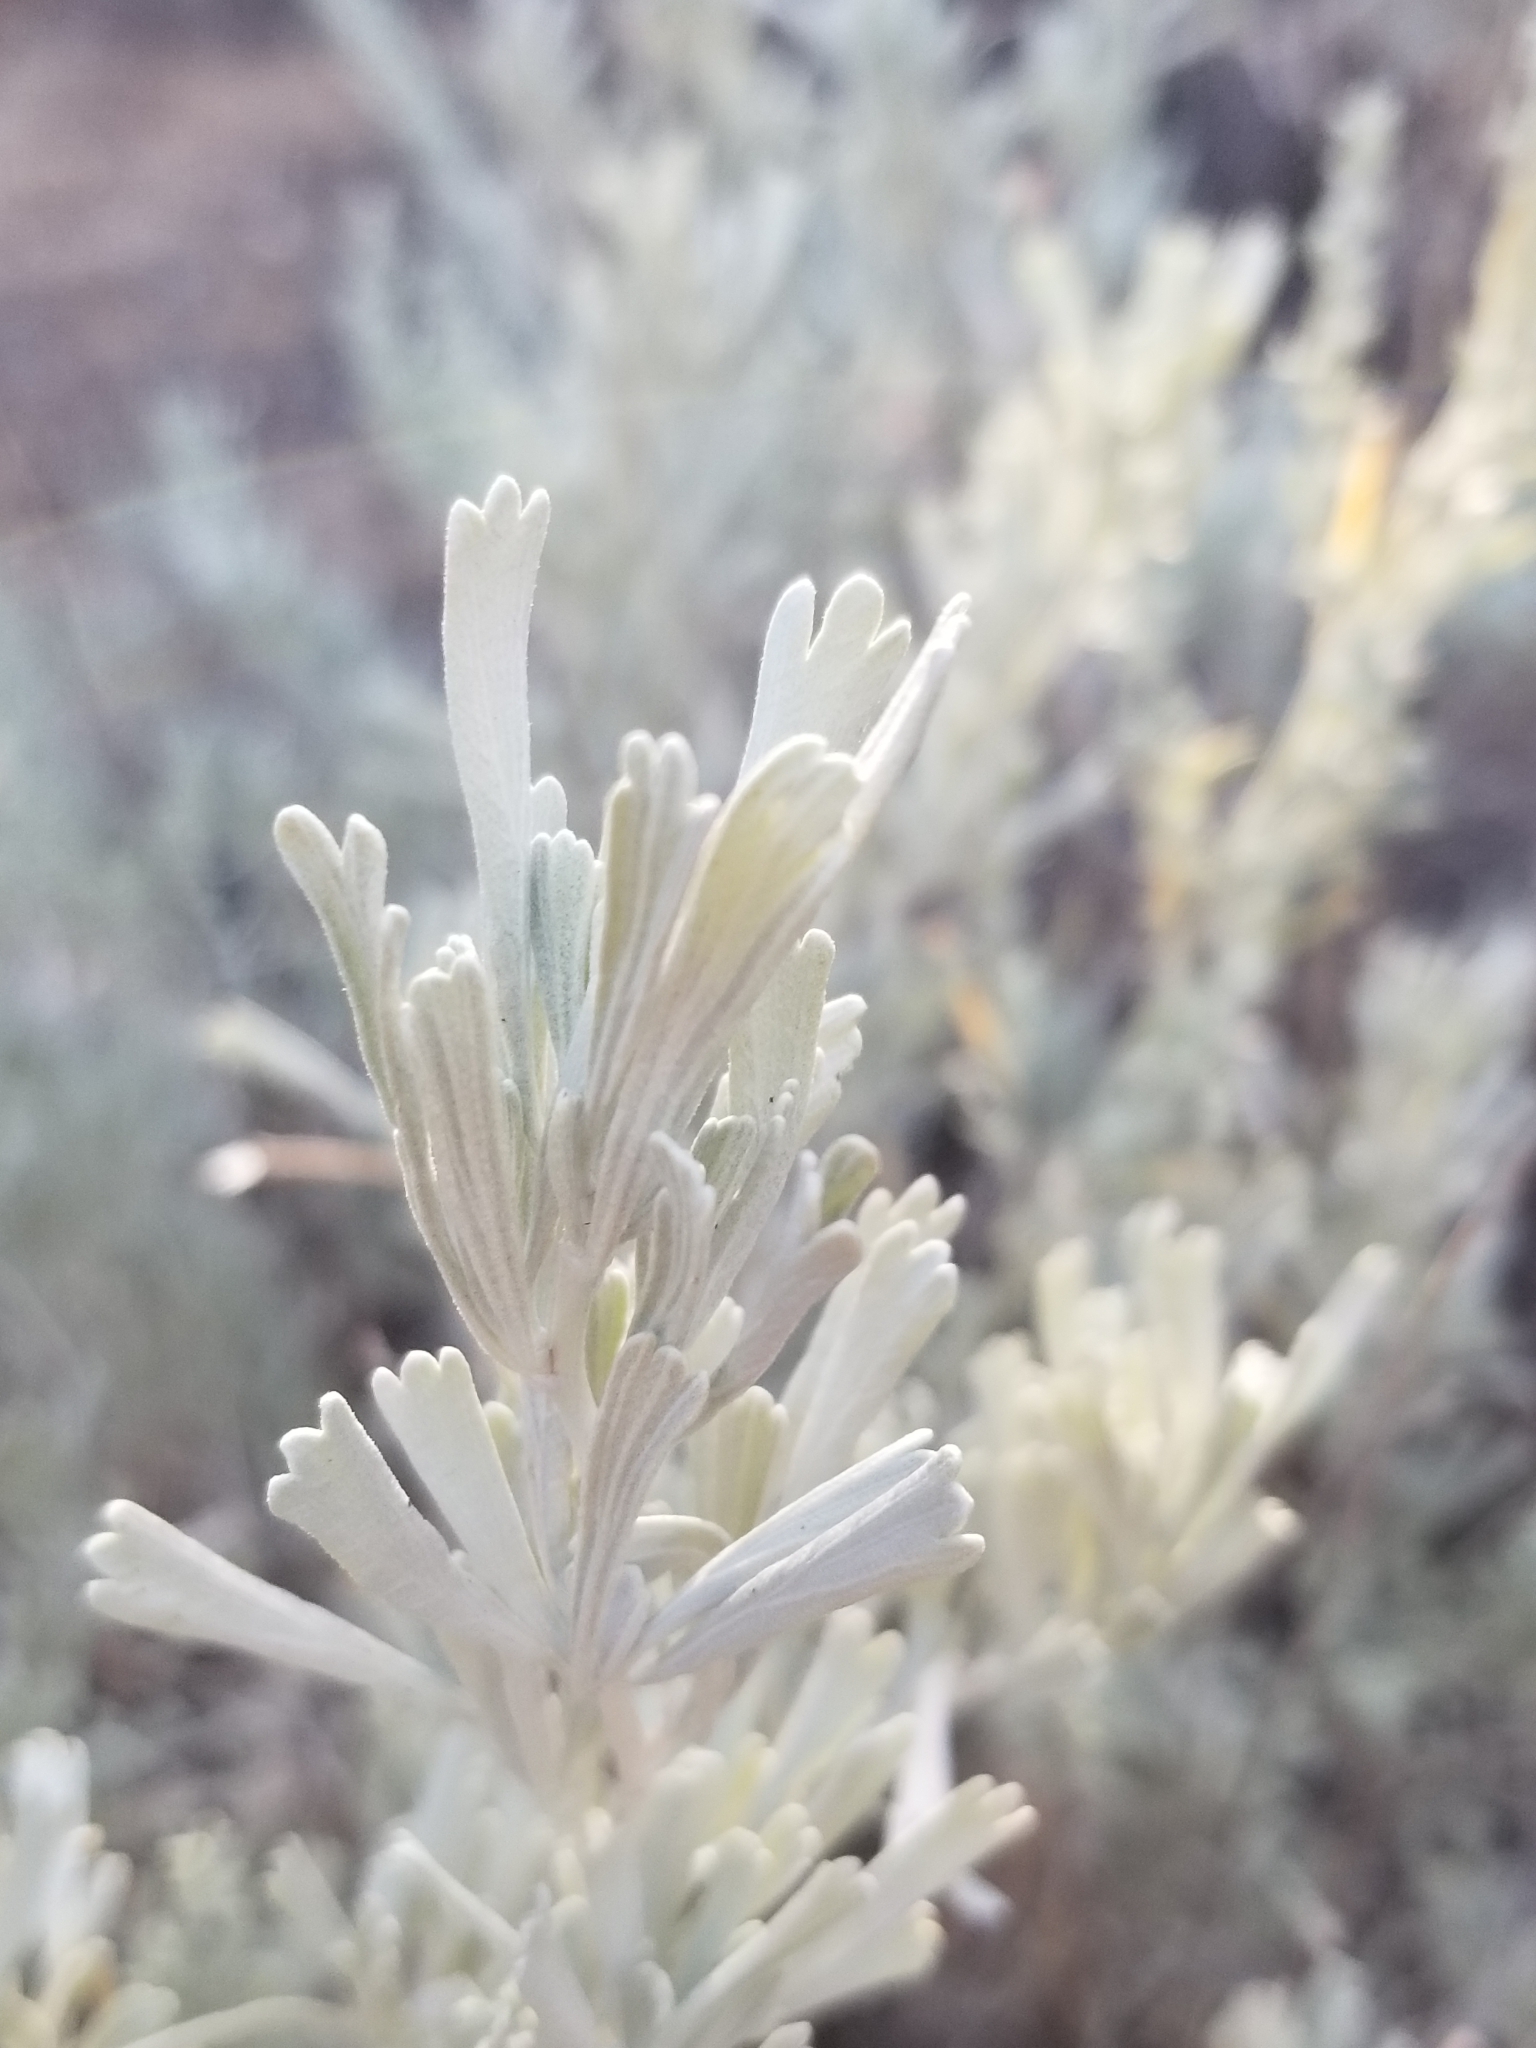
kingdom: Plantae
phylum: Tracheophyta
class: Magnoliopsida
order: Asterales
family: Asteraceae
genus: Artemisia
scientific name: Artemisia tridentata
